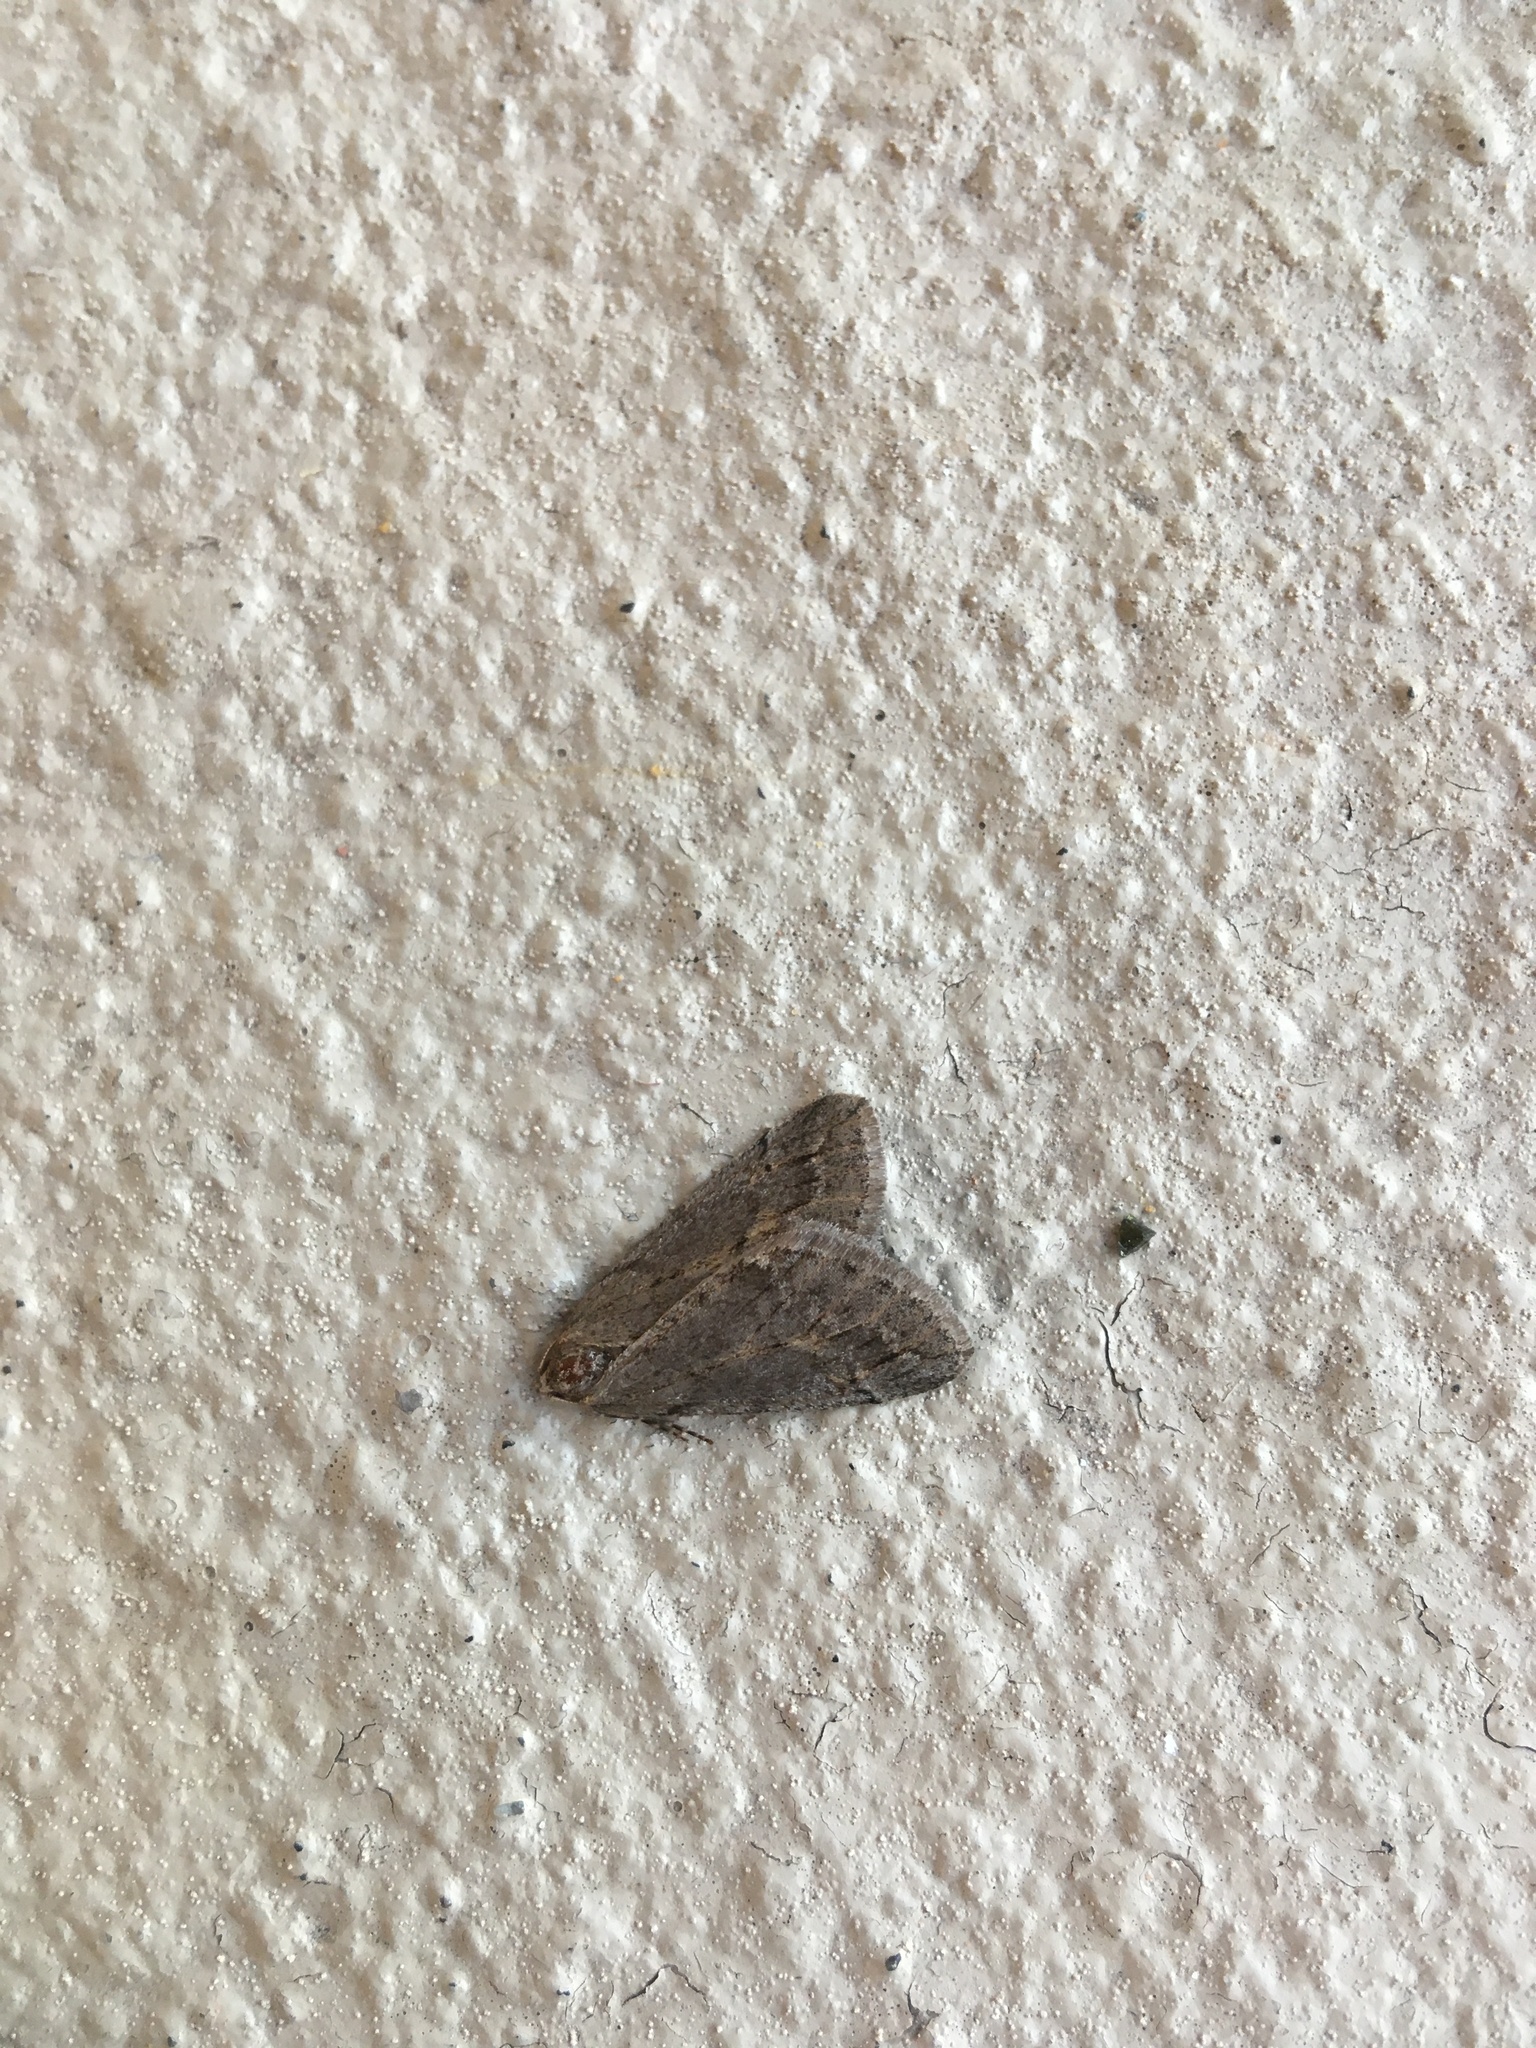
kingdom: Animalia
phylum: Arthropoda
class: Insecta
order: Lepidoptera
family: Geometridae
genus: Paleacrita
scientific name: Paleacrita vernata
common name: Spring cankerworm
